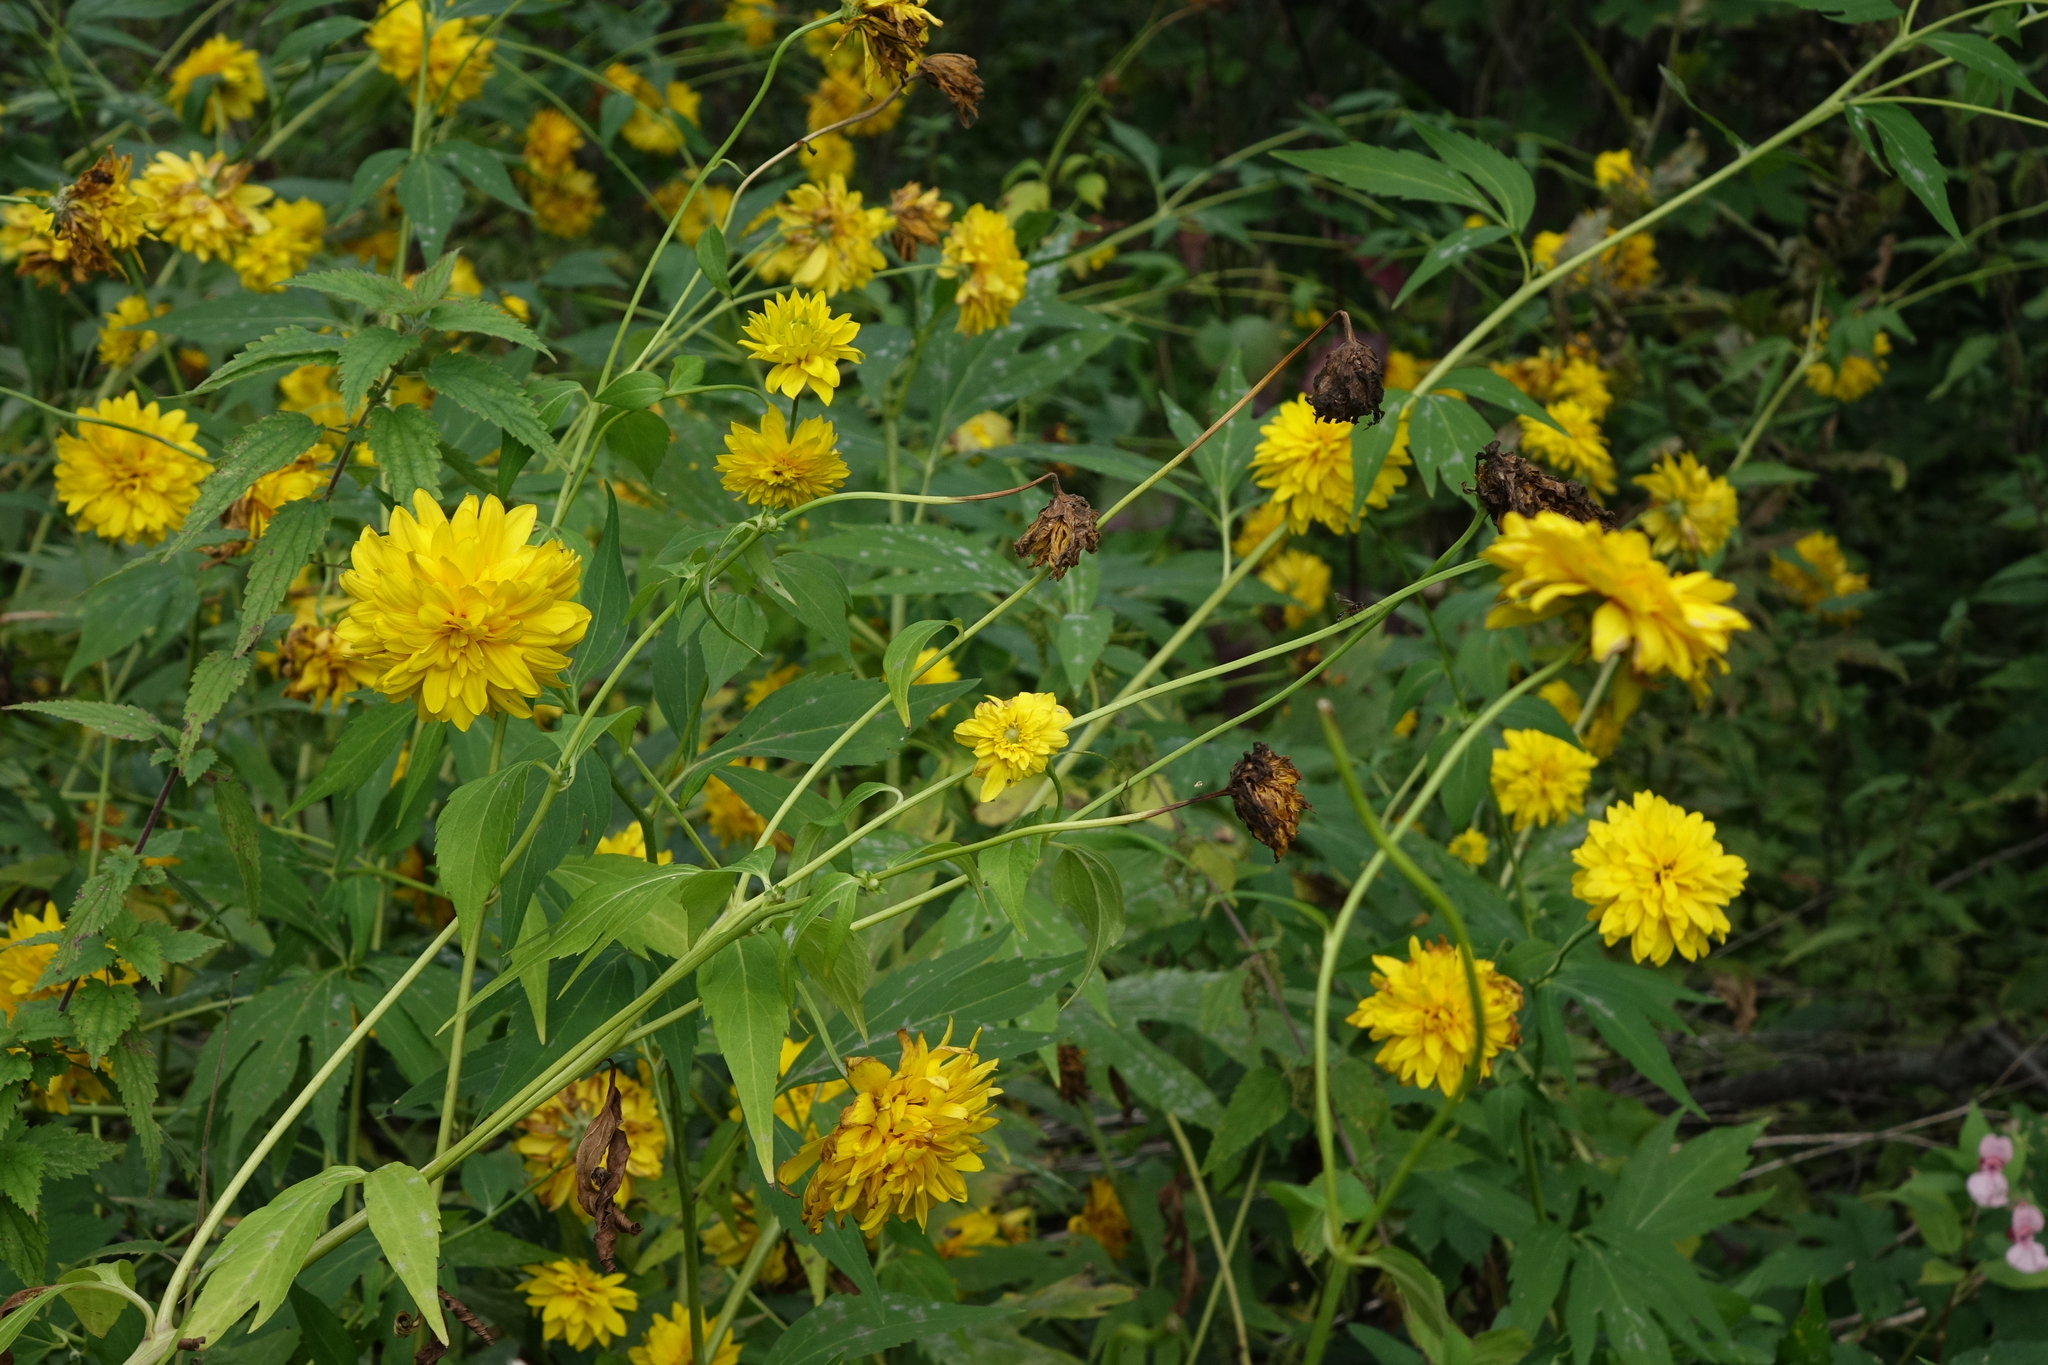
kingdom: Plantae
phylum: Tracheophyta
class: Magnoliopsida
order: Asterales
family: Asteraceae
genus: Rudbeckia
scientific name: Rudbeckia laciniata
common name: Coneflower
